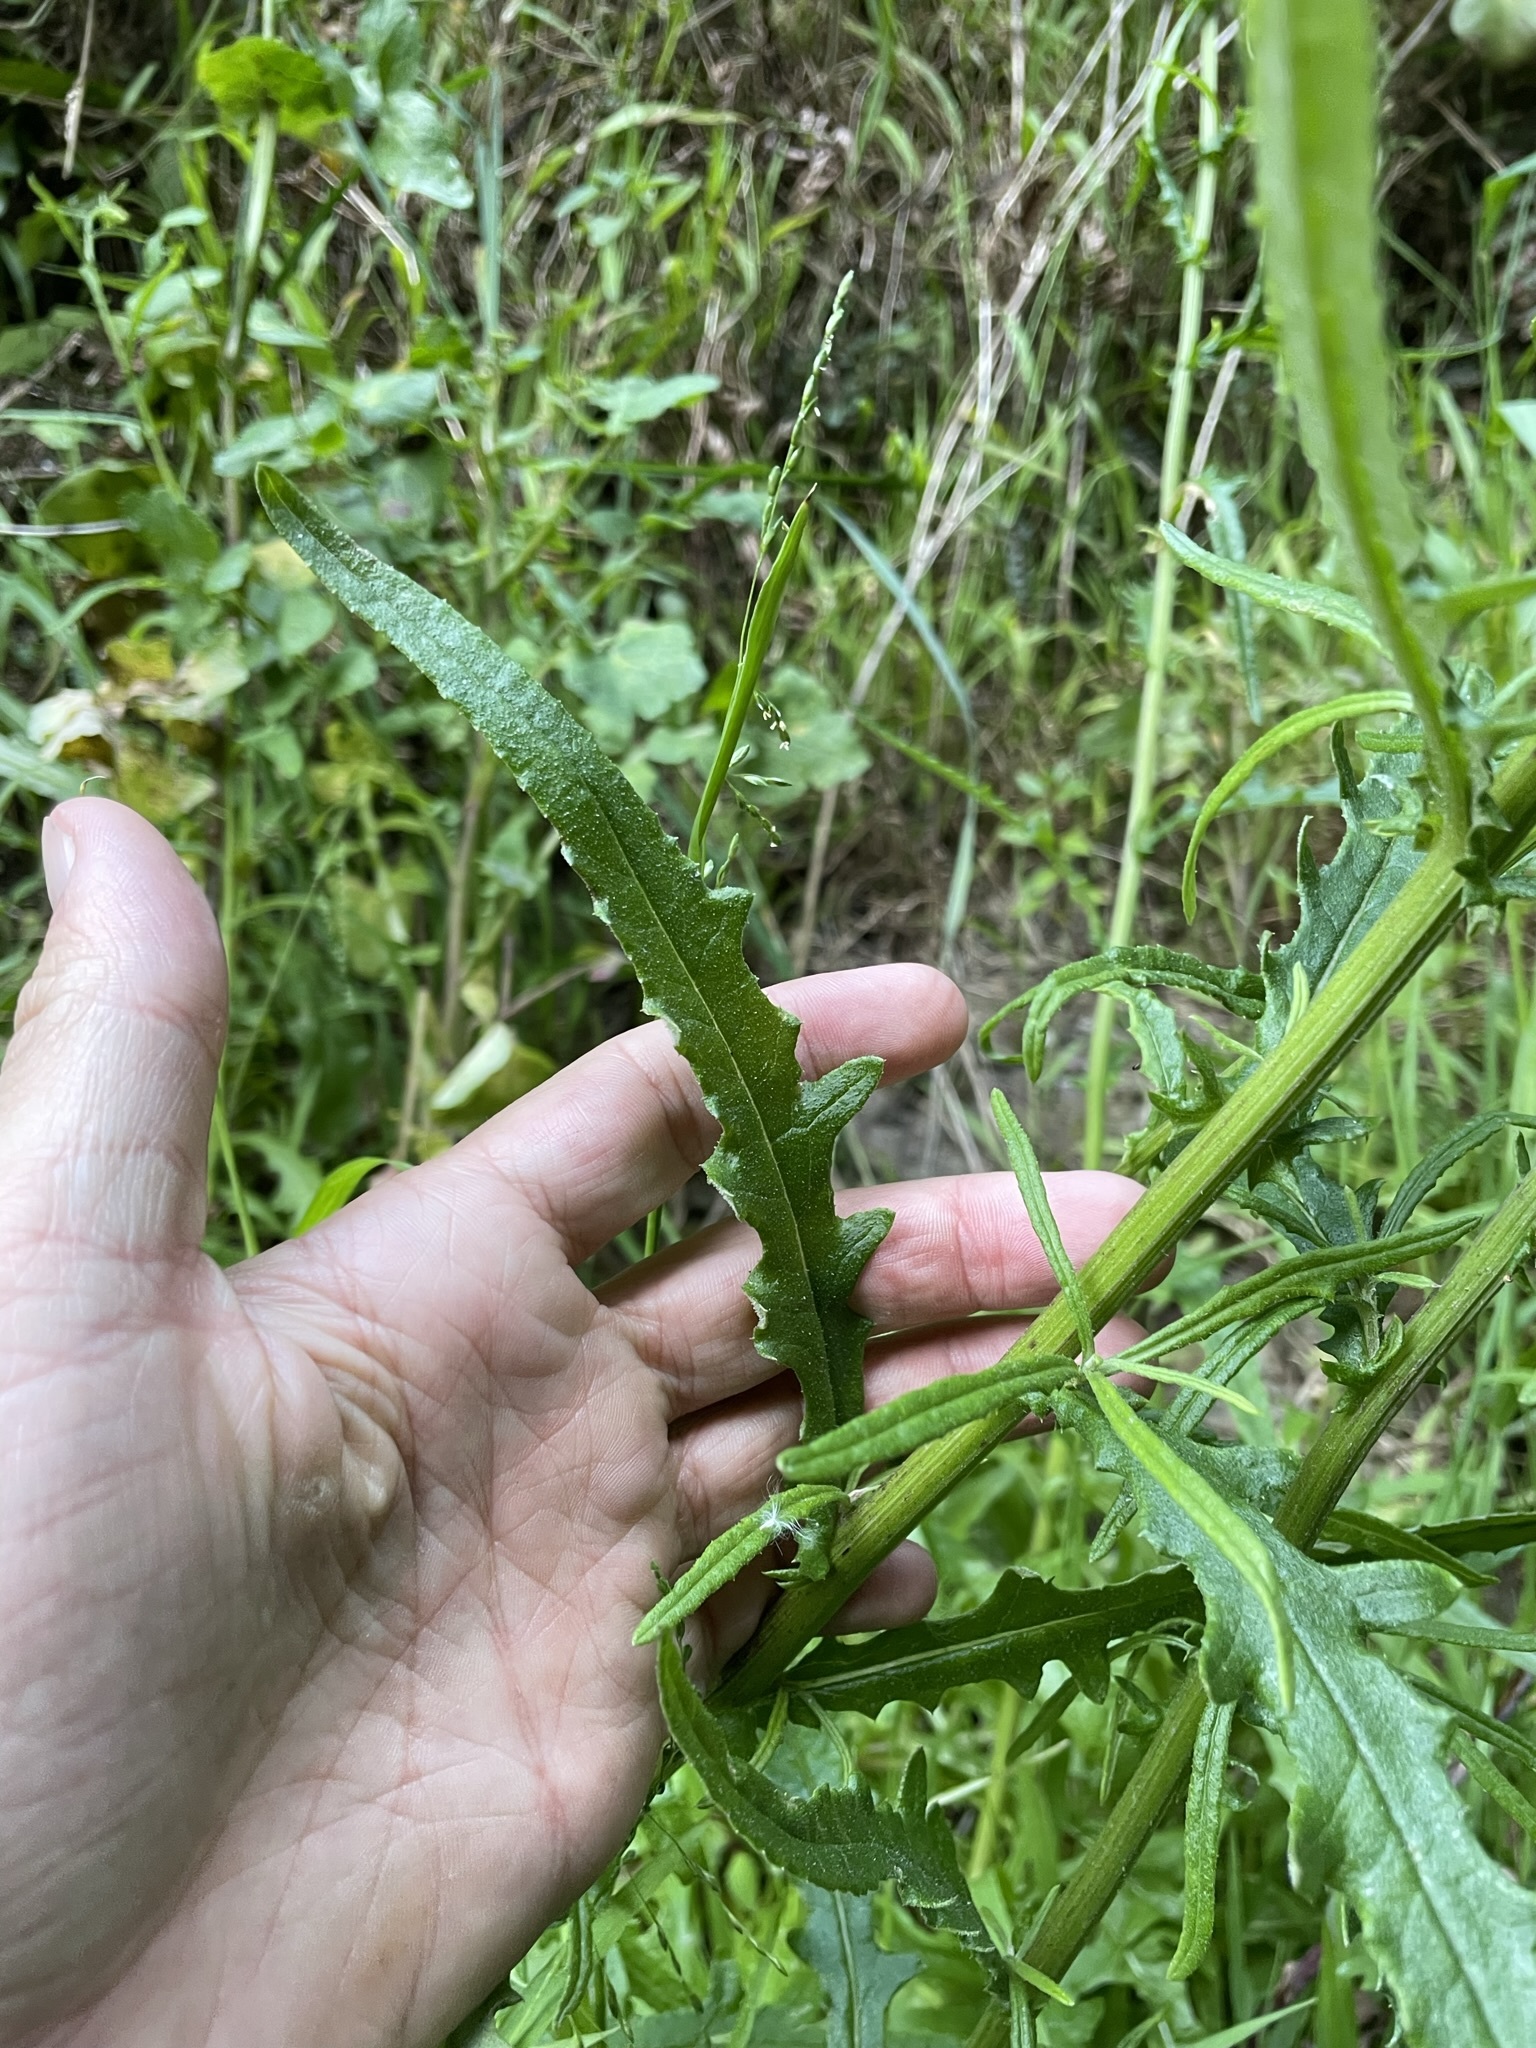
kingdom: Plantae
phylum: Tracheophyta
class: Magnoliopsida
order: Asterales
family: Asteraceae
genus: Senecio
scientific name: Senecio hispidulus
